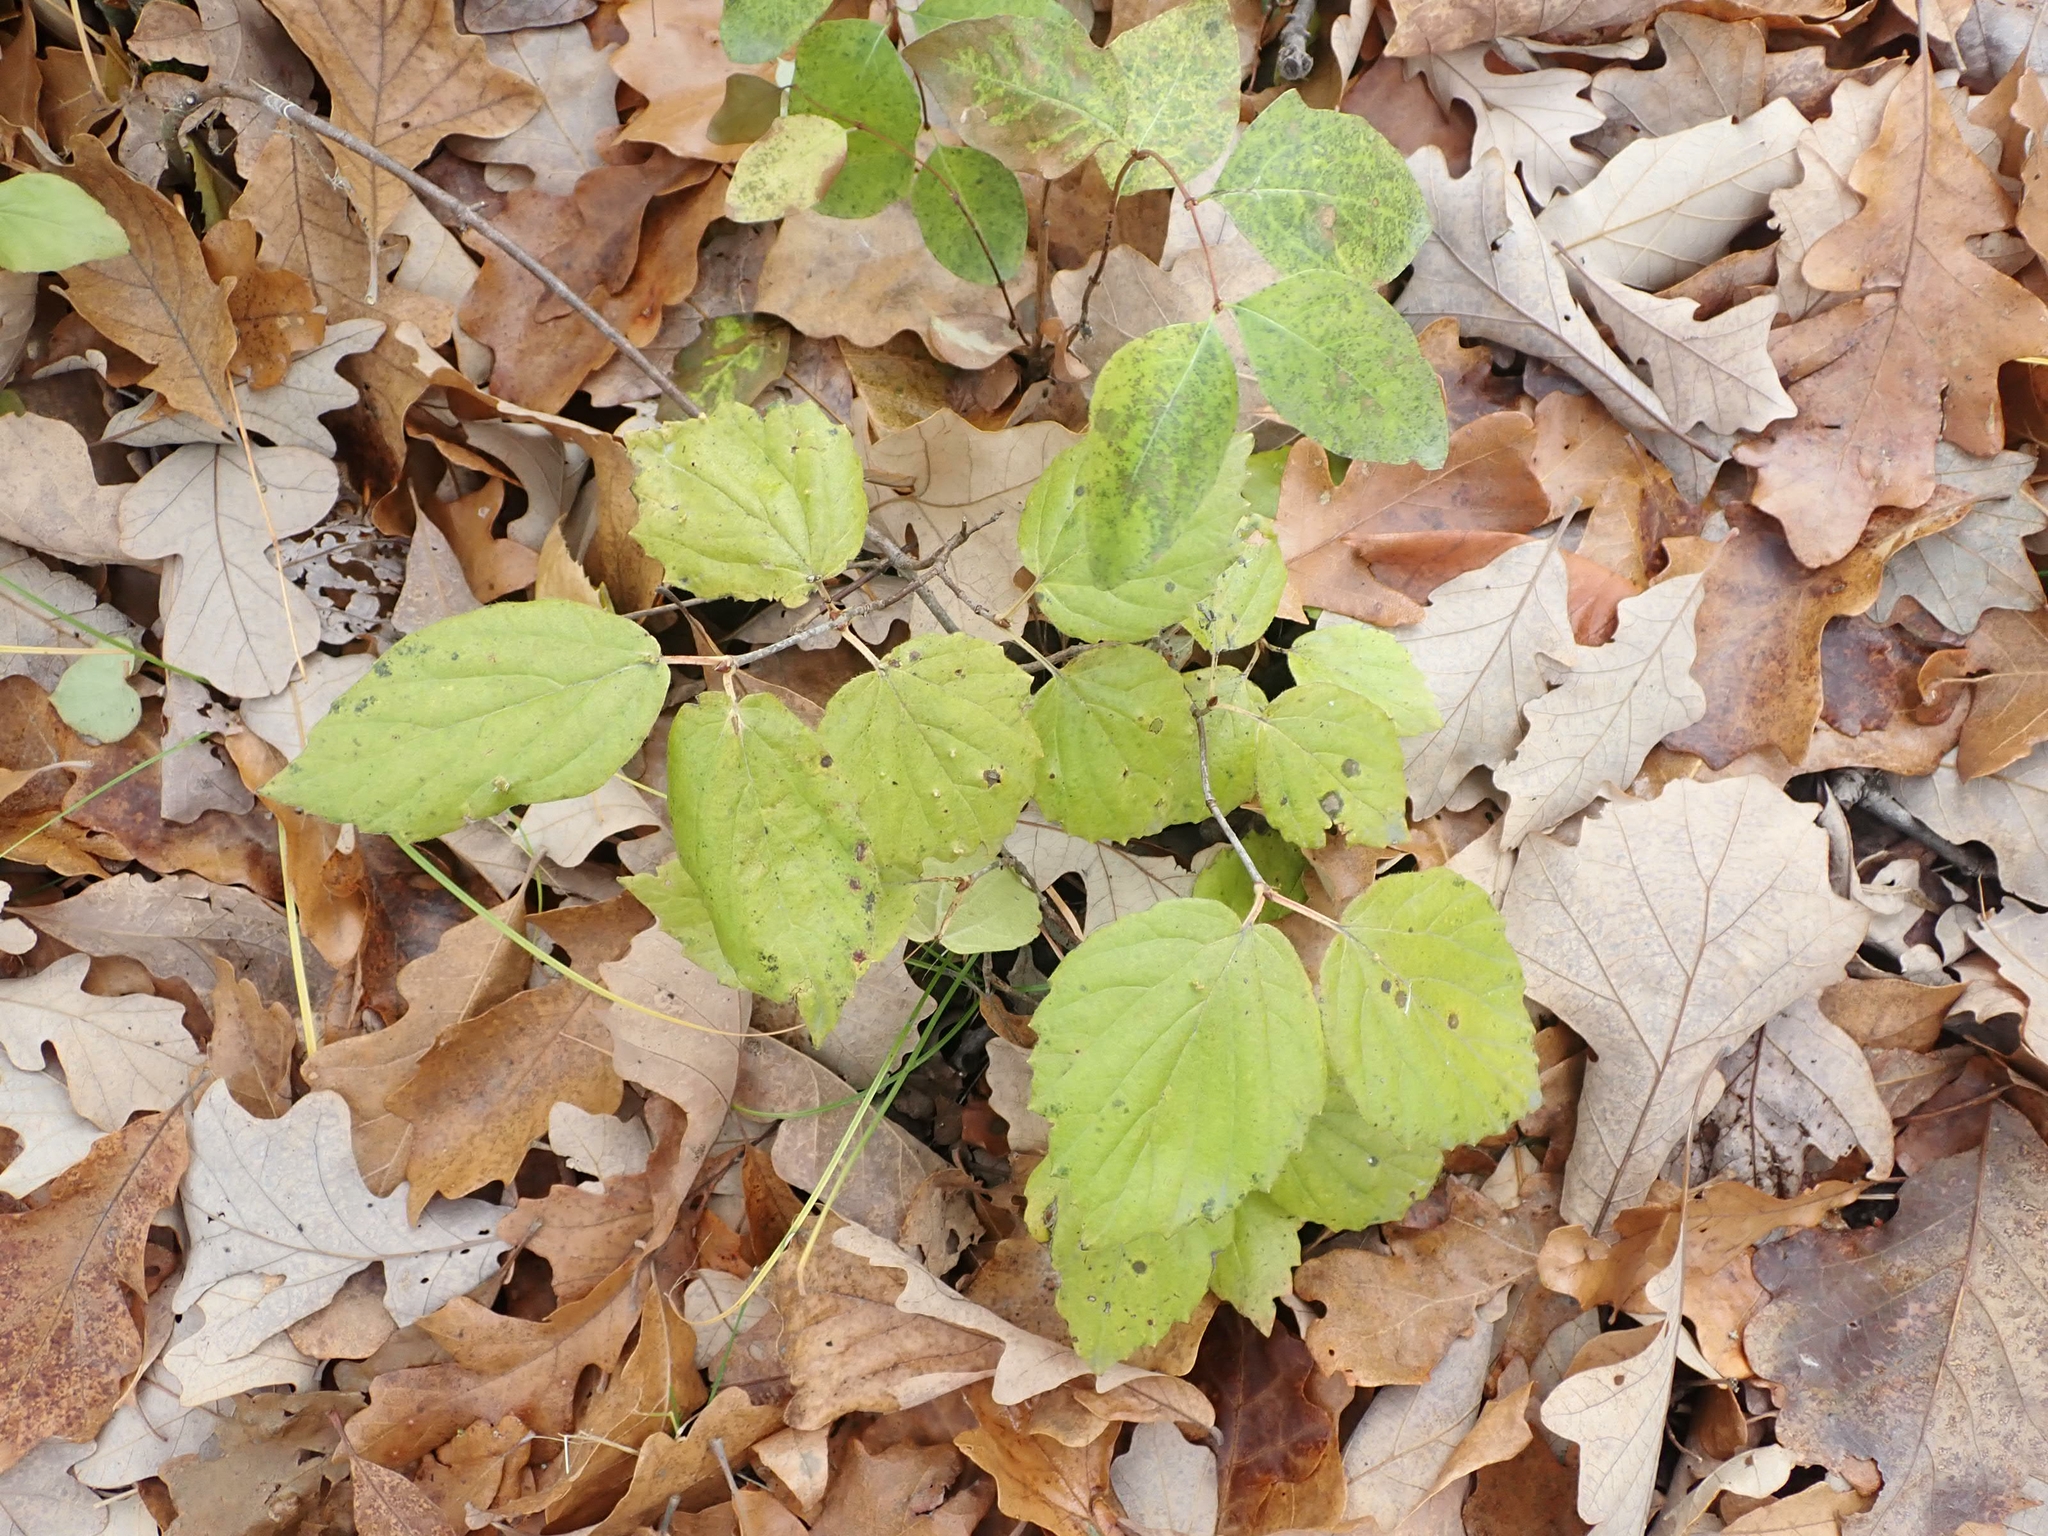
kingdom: Plantae
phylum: Tracheophyta
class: Magnoliopsida
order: Dipsacales
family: Viburnaceae
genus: Viburnum
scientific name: Viburnum rafinesqueanum
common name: Downy arrow-wood
